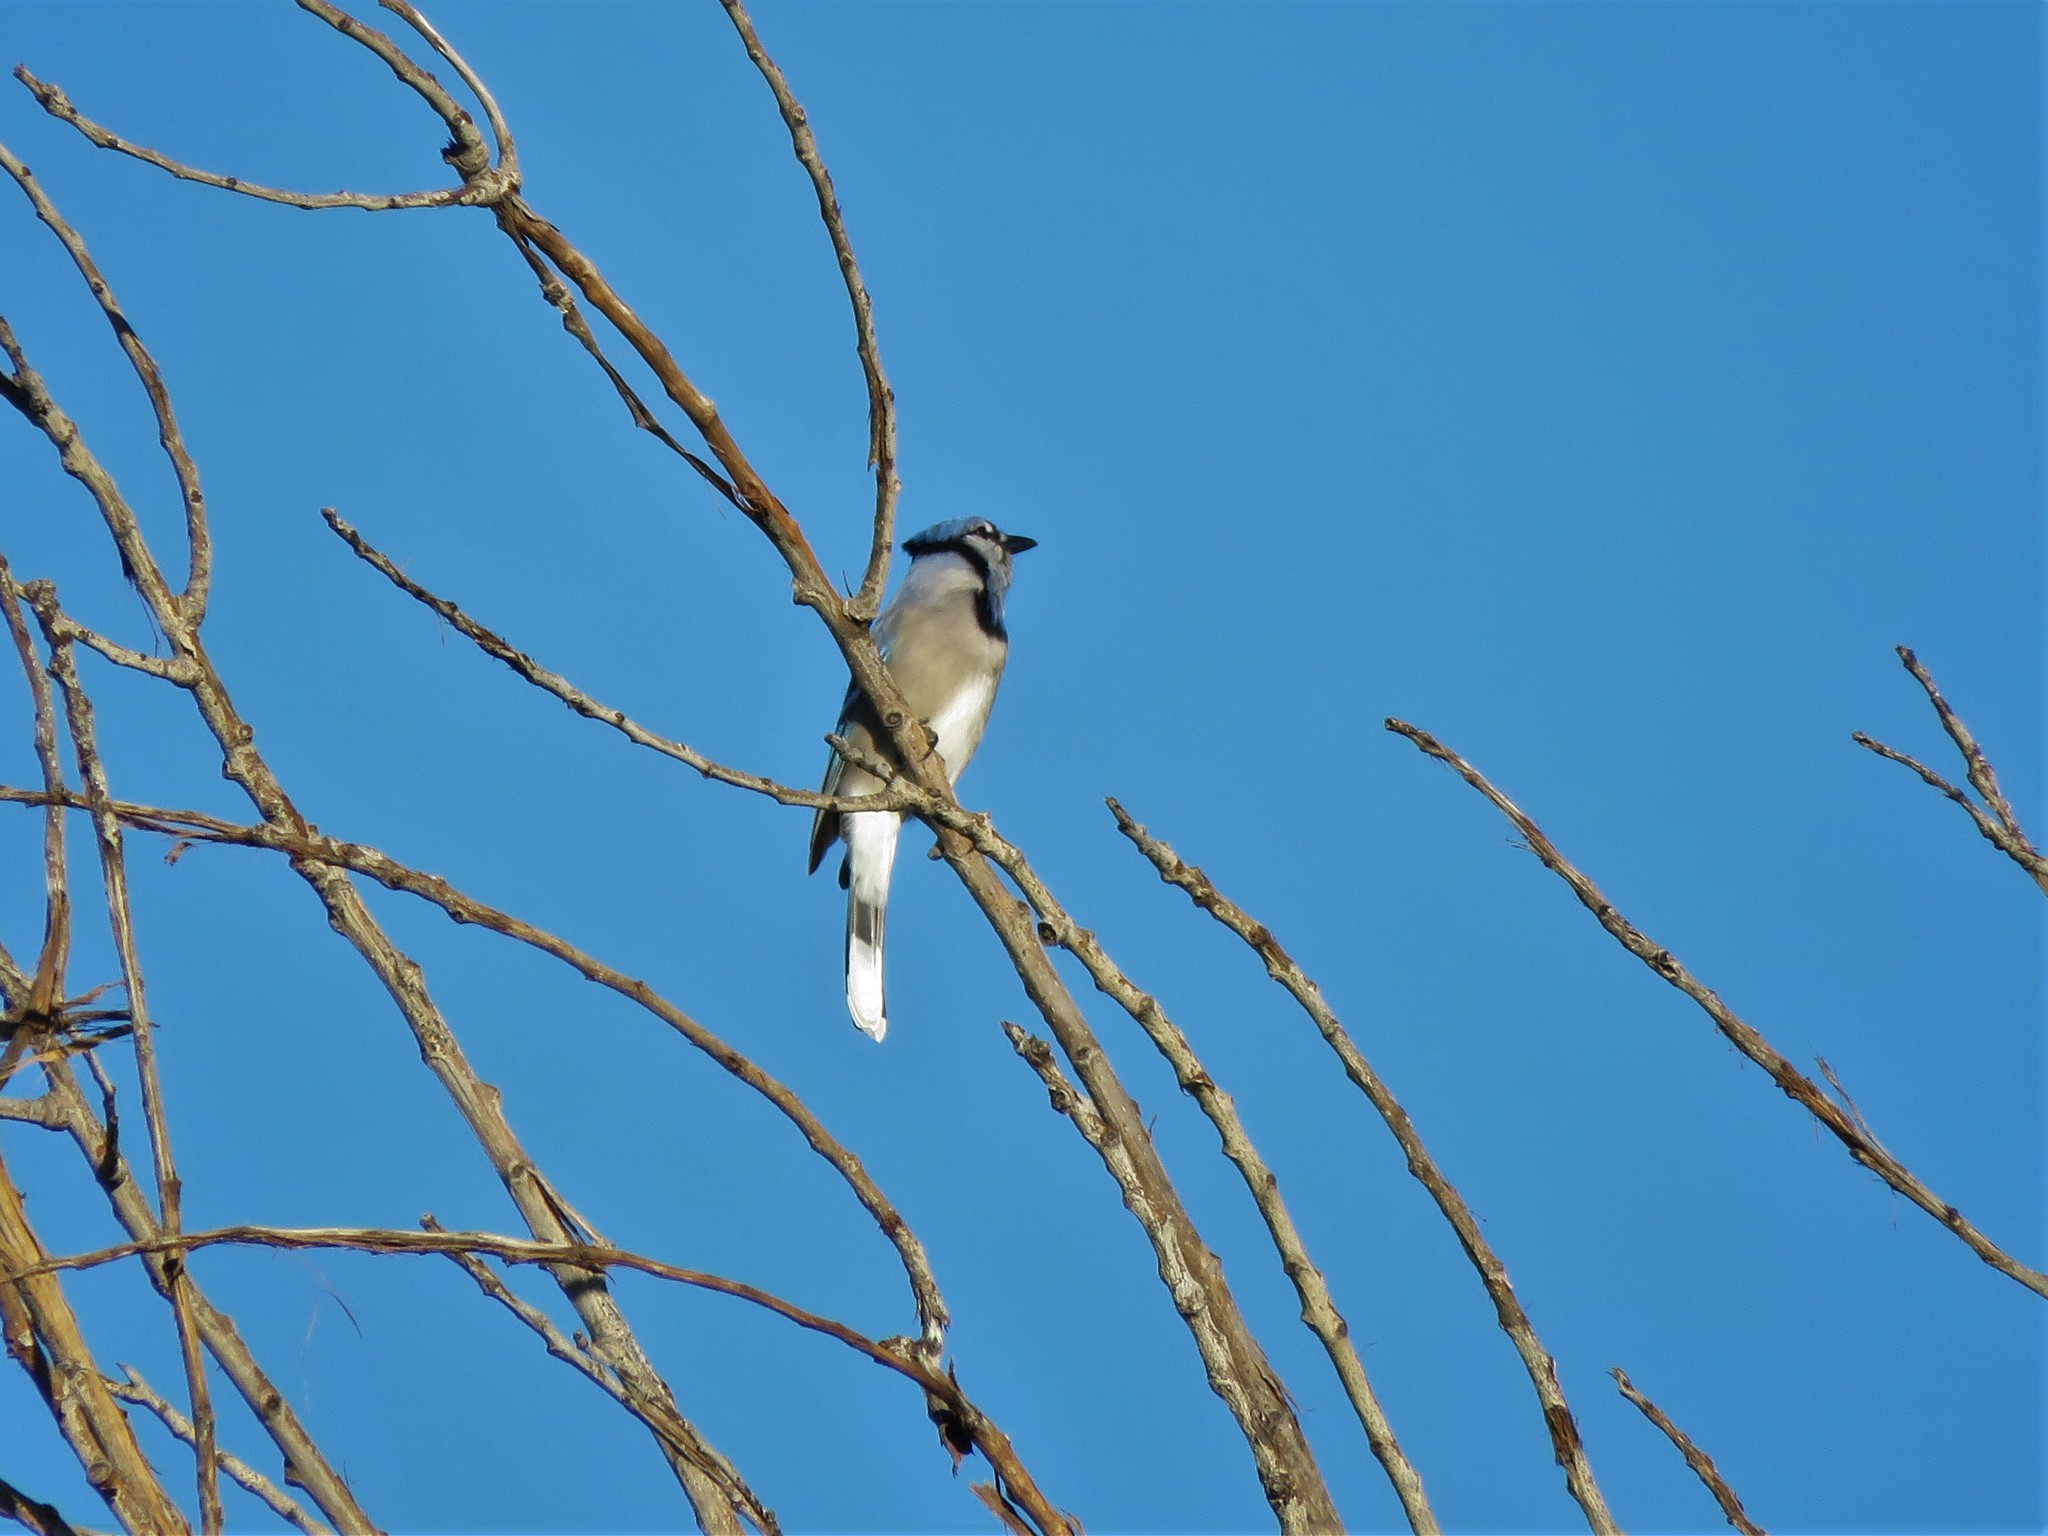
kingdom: Animalia
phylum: Chordata
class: Aves
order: Passeriformes
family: Corvidae
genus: Cyanocitta
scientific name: Cyanocitta cristata
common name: Blue jay
